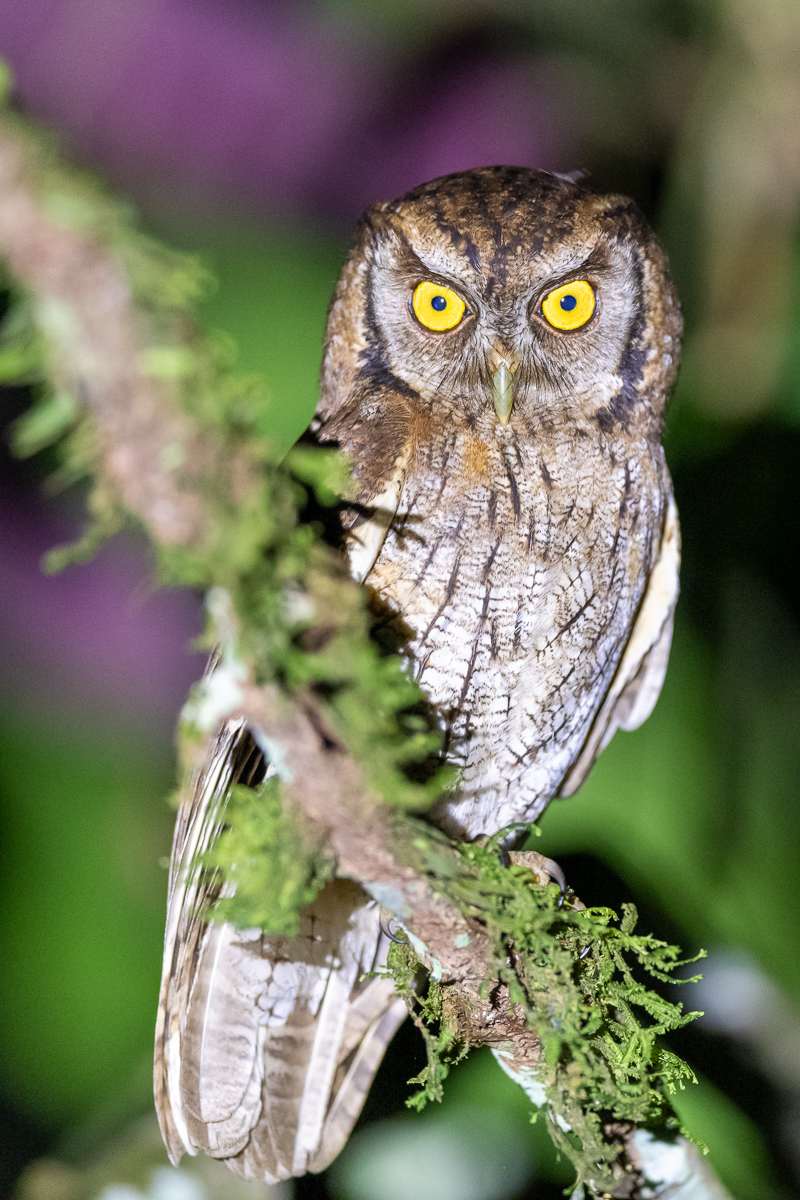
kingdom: Animalia
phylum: Chordata
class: Aves
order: Strigiformes
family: Strigidae
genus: Megascops
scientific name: Megascops choliba
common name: Tropical screech-owl
